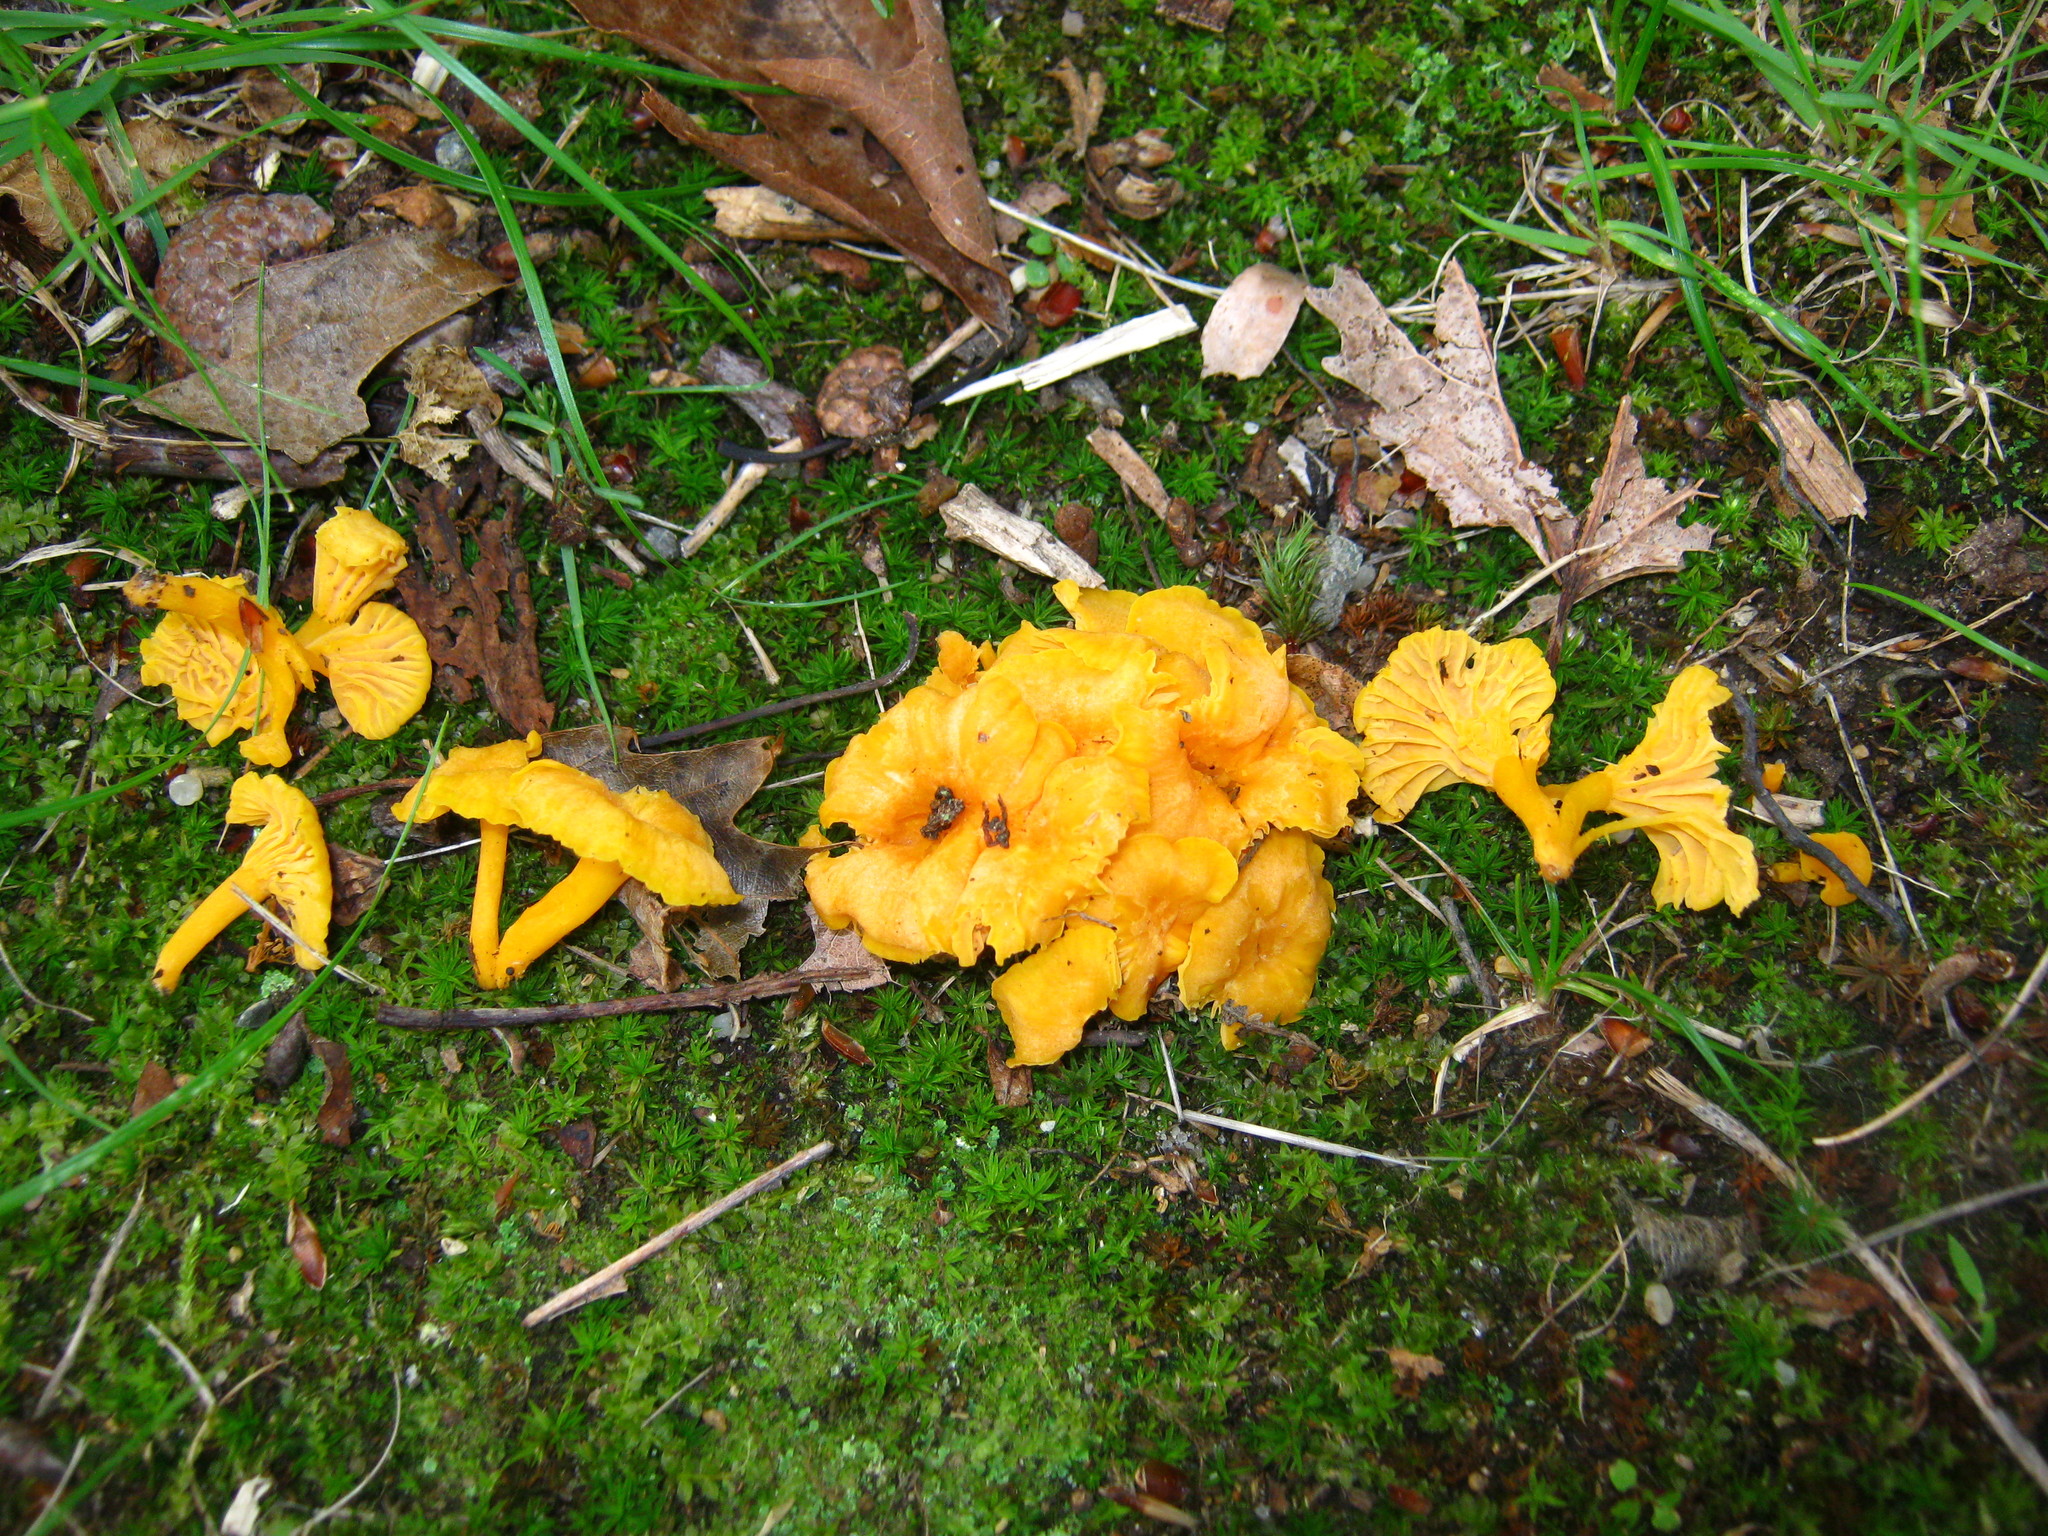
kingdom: Fungi
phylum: Basidiomycota
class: Agaricomycetes
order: Cantharellales
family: Hydnaceae
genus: Cantharellus
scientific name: Cantharellus minor
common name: Small chanterelle
